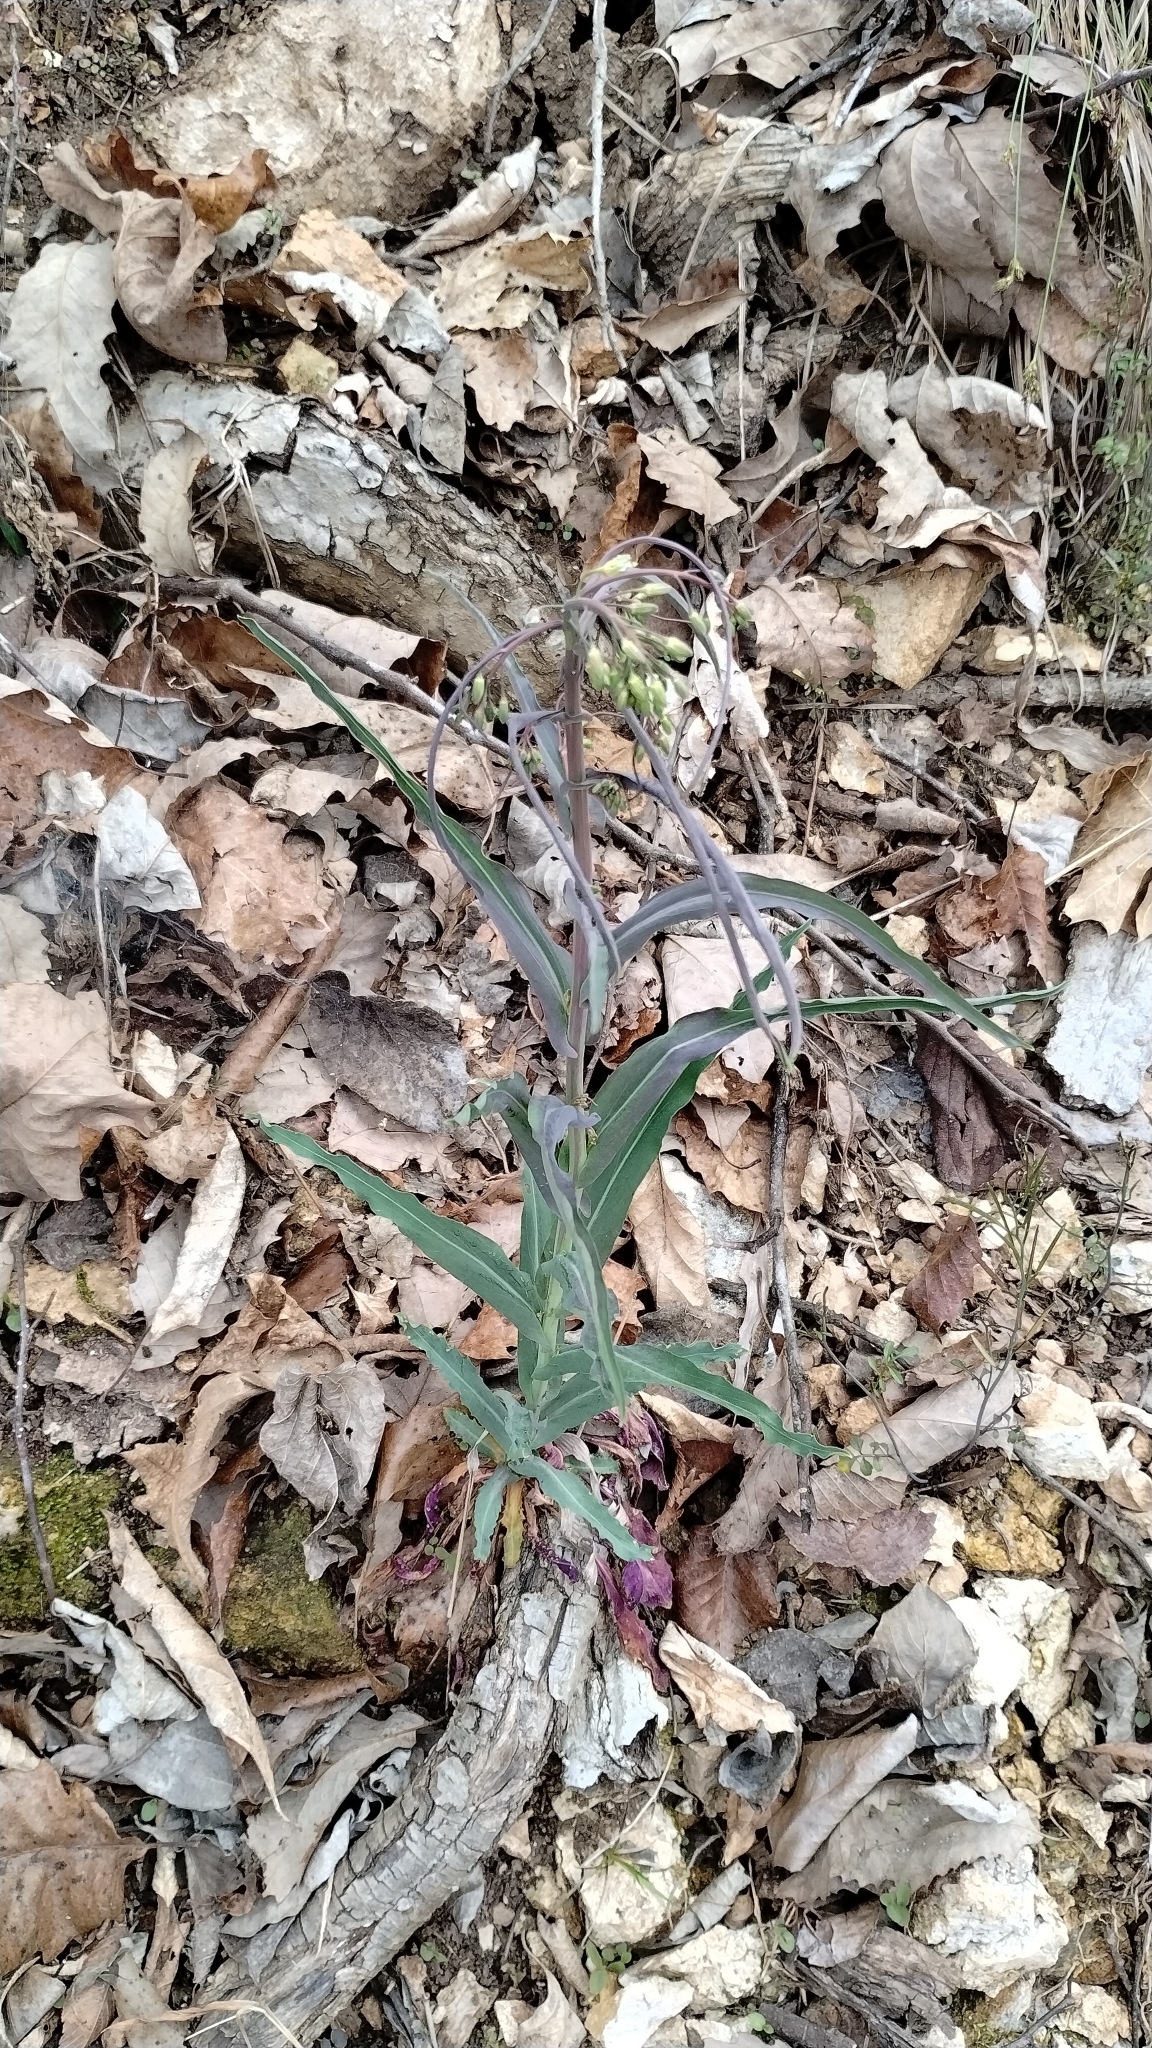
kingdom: Plantae
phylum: Tracheophyta
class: Magnoliopsida
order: Brassicales
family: Brassicaceae
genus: Borodinia
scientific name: Borodinia laevigata
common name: Smooth rockcress
